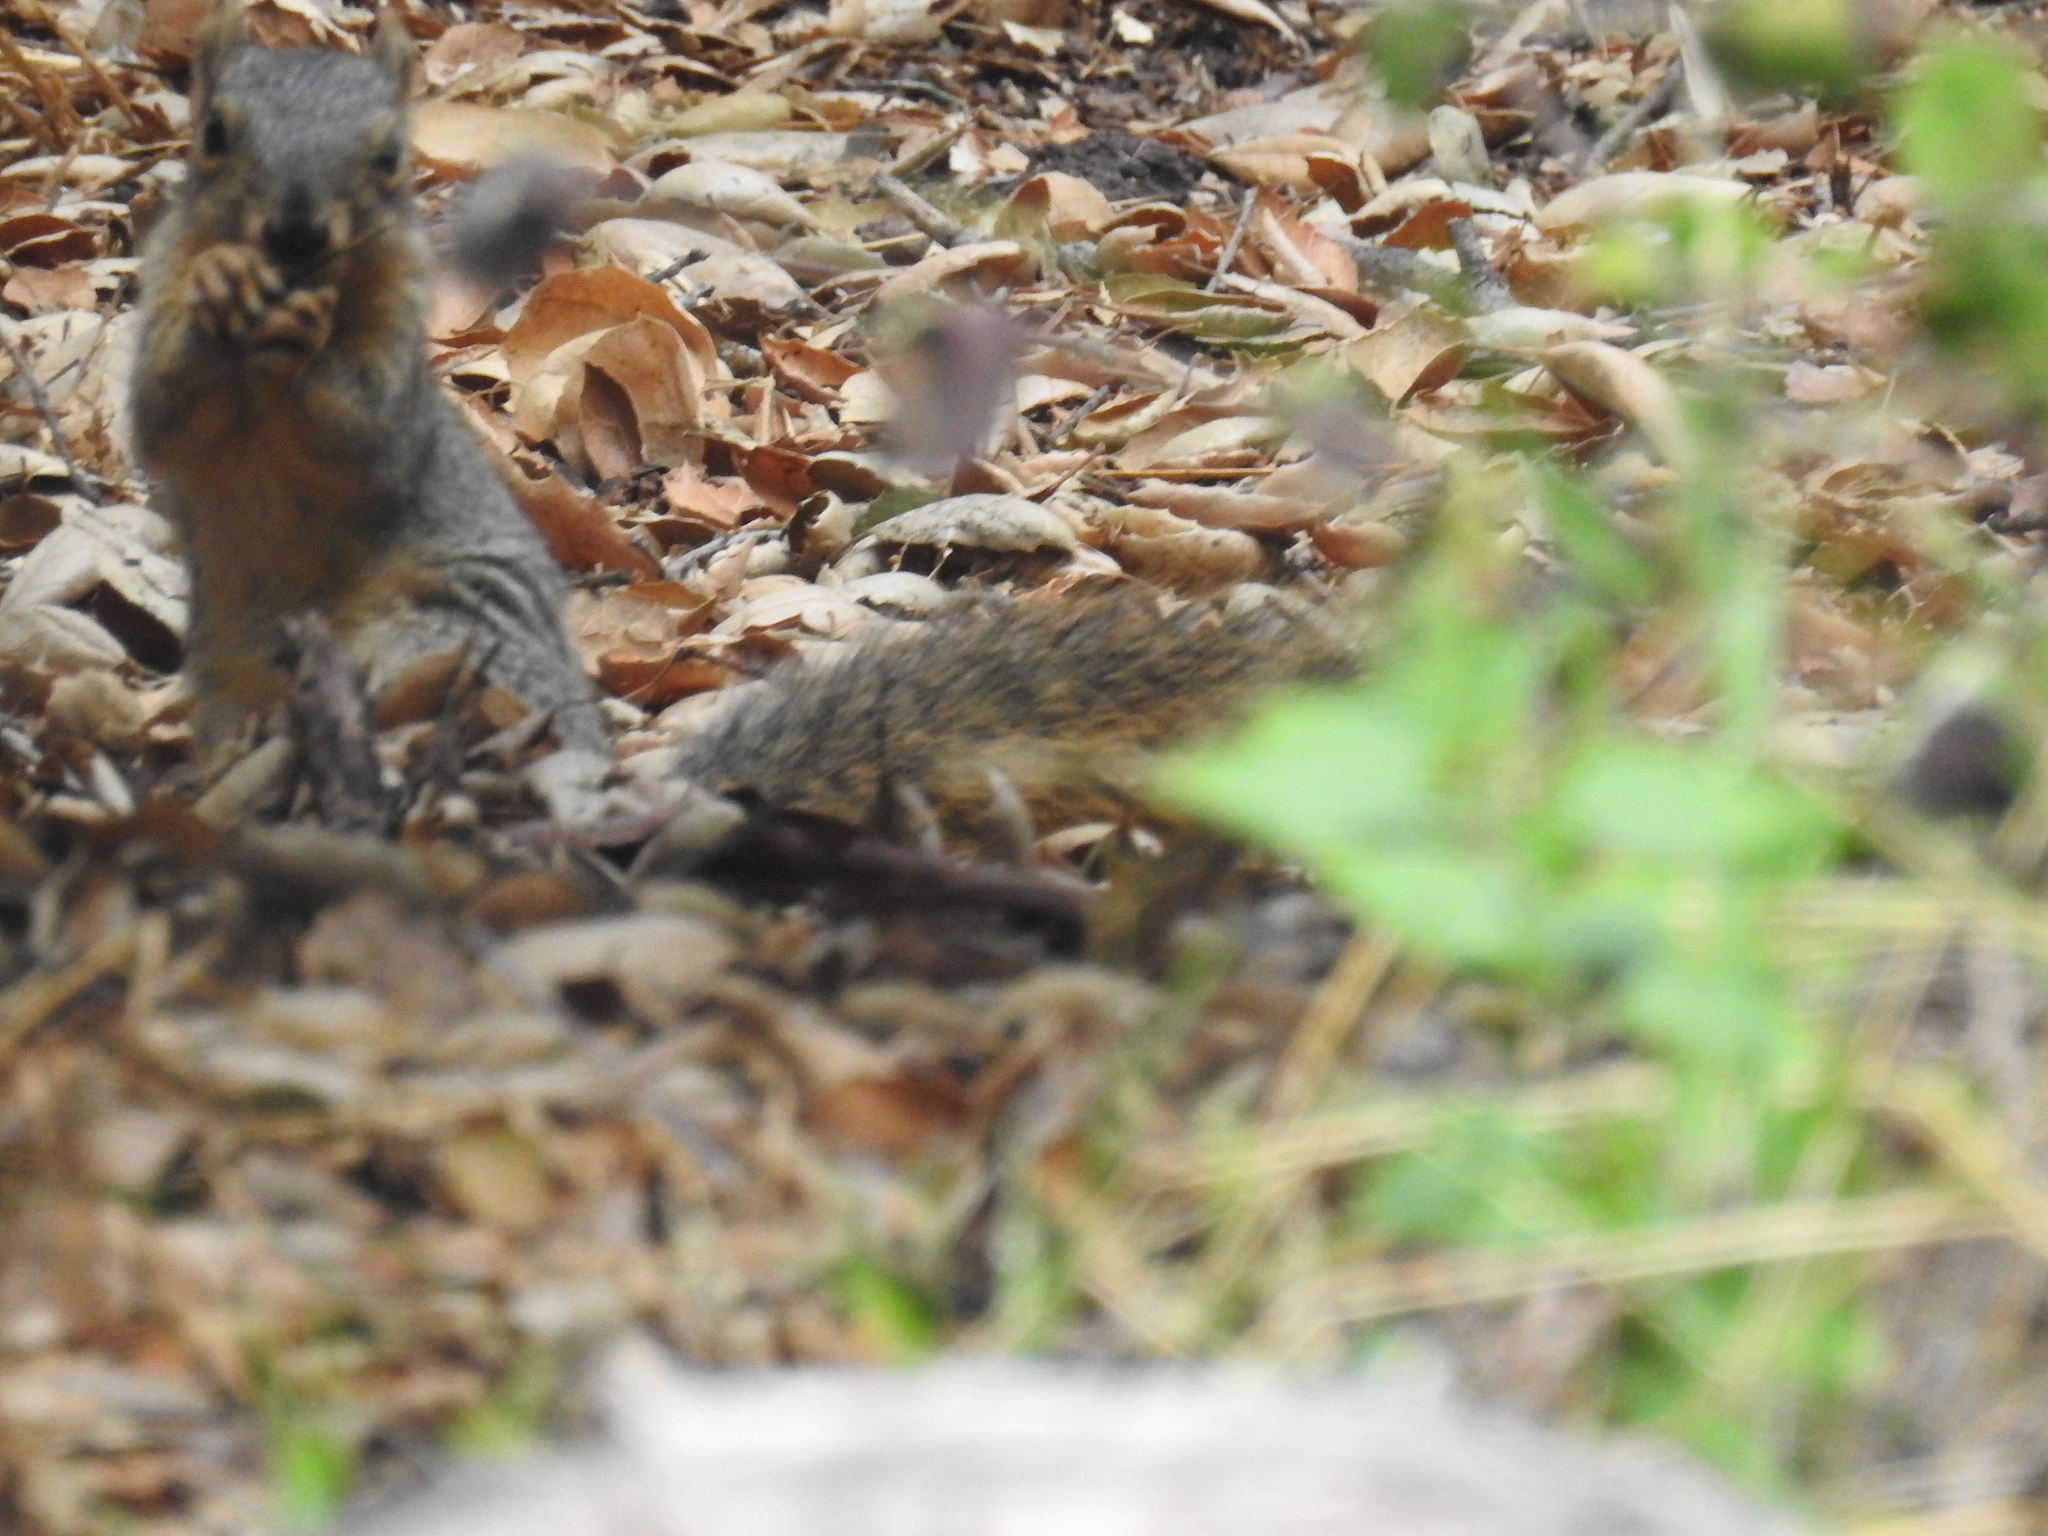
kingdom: Animalia
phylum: Chordata
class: Mammalia
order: Rodentia
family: Sciuridae
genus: Sciurus
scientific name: Sciurus niger
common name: Fox squirrel
